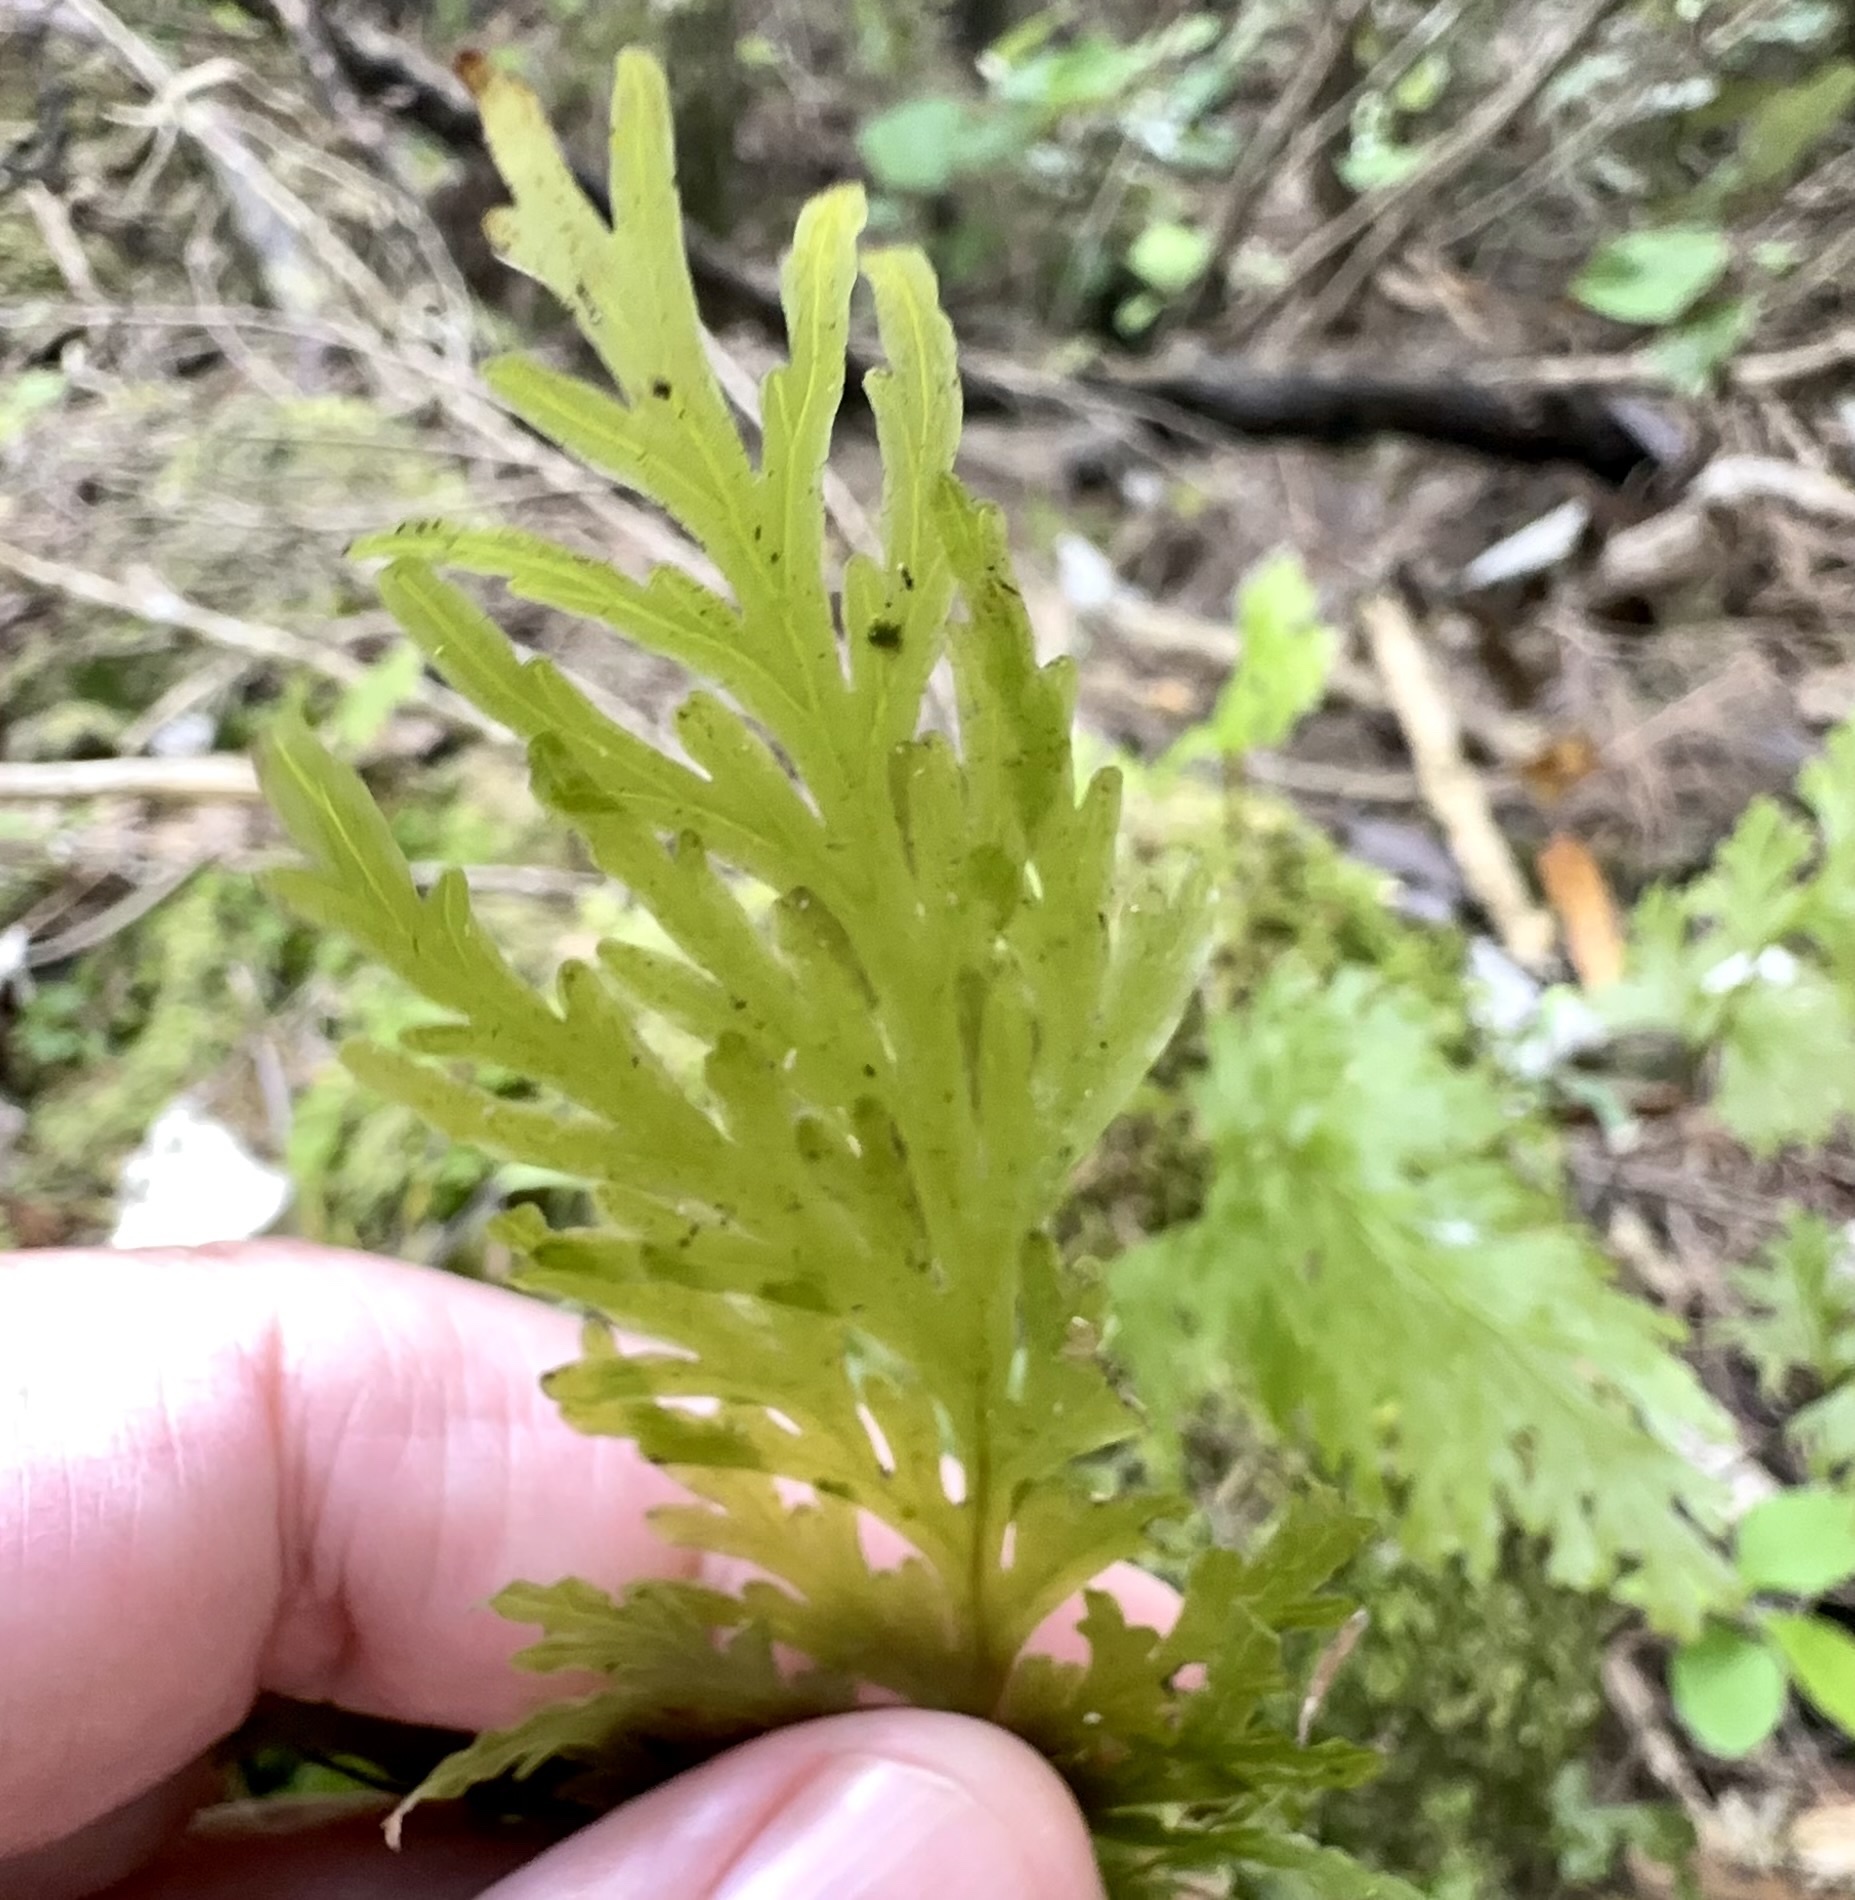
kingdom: Plantae
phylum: Tracheophyta
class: Polypodiopsida
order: Hymenophyllales
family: Hymenophyllaceae
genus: Hymenophyllum
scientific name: Hymenophyllum dilatatum
